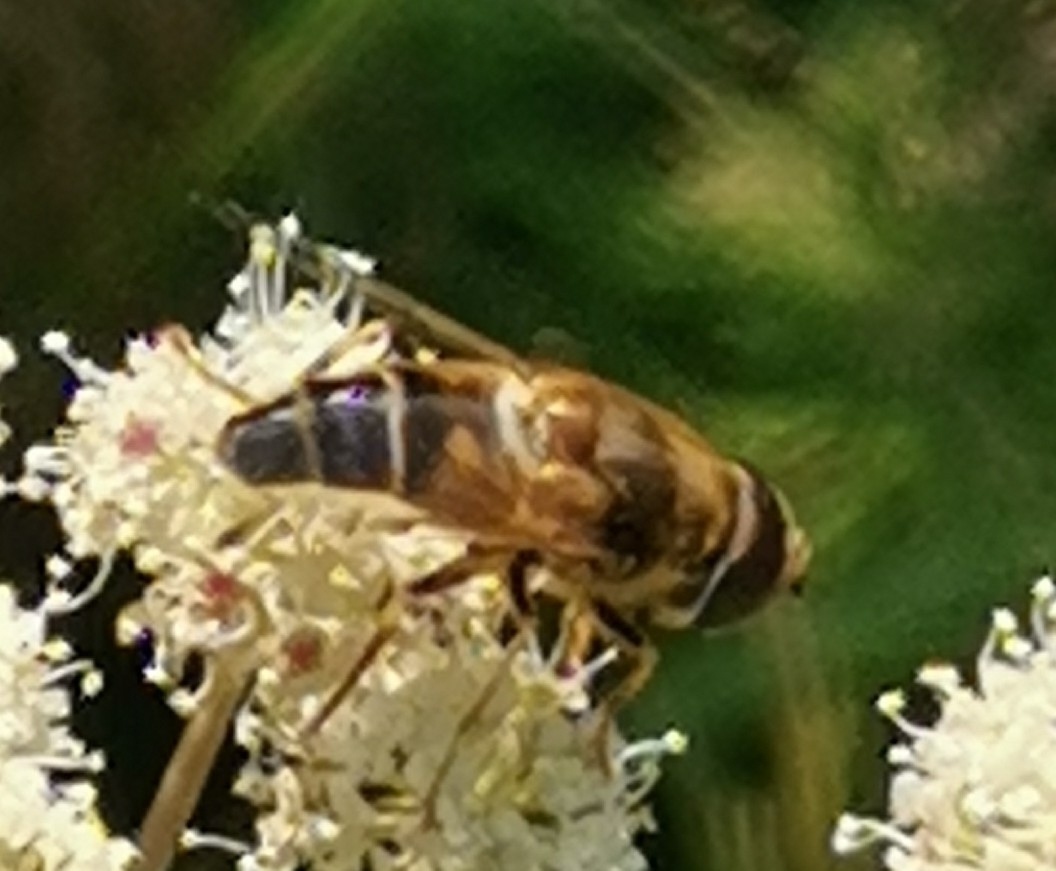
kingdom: Animalia
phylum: Arthropoda
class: Insecta
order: Diptera
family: Syrphidae
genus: Eristalis
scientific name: Eristalis pertinax
